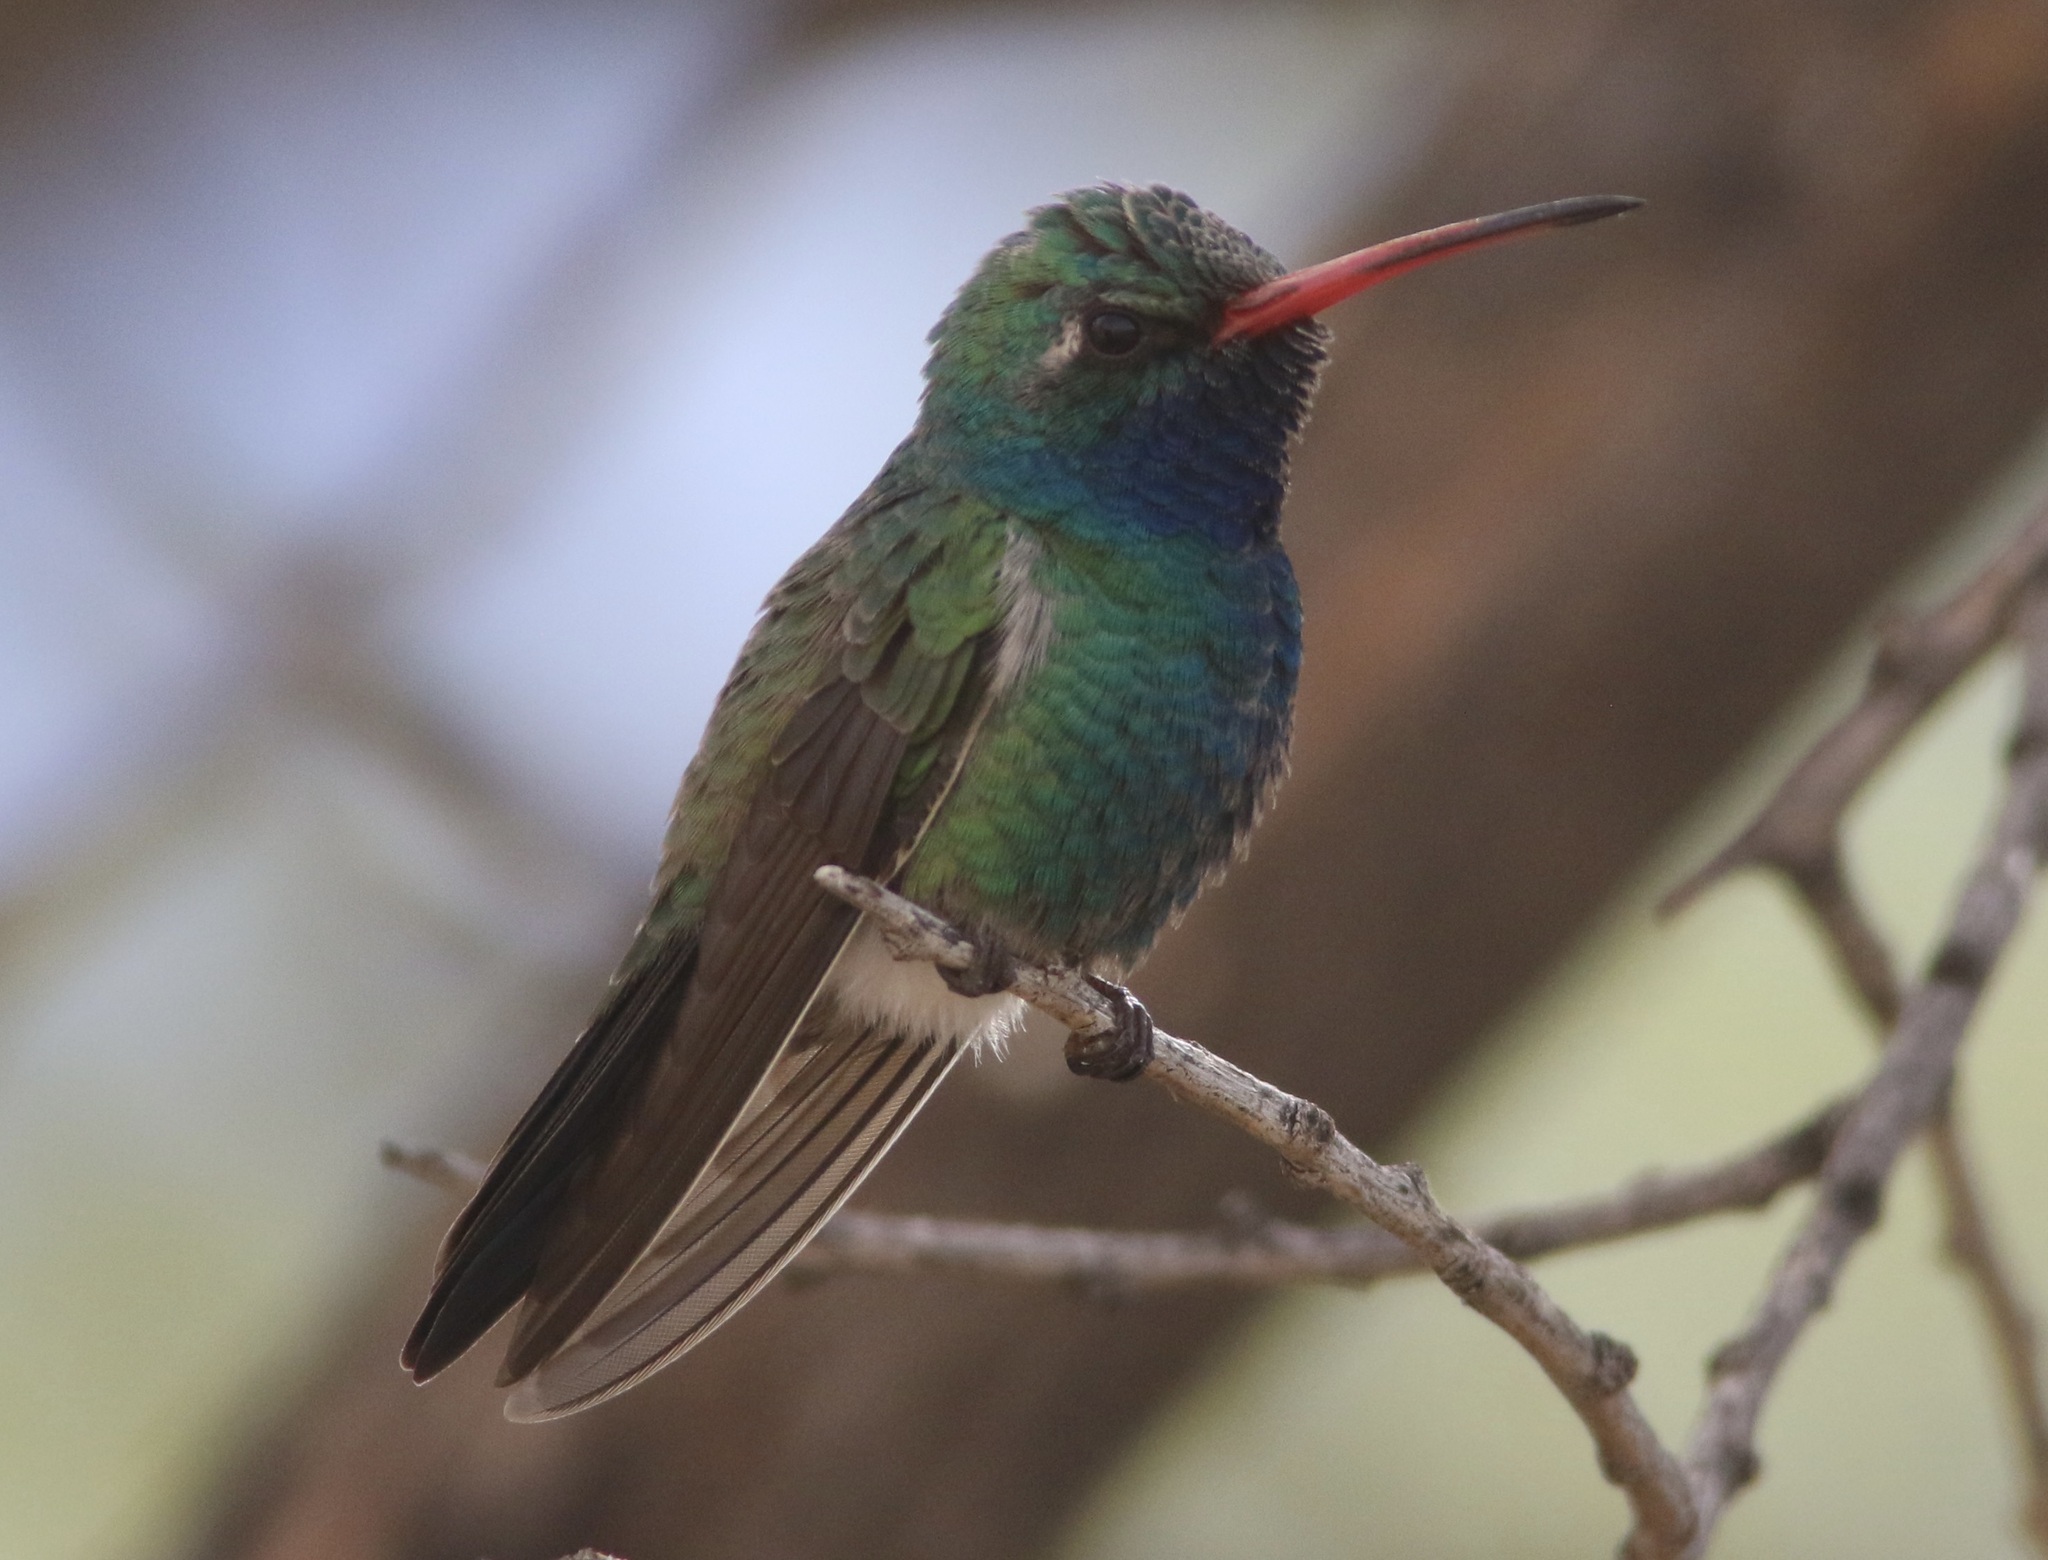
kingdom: Animalia
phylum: Chordata
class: Aves
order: Apodiformes
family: Trochilidae
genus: Cynanthus
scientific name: Cynanthus latirostris
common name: Broad-billed hummingbird
